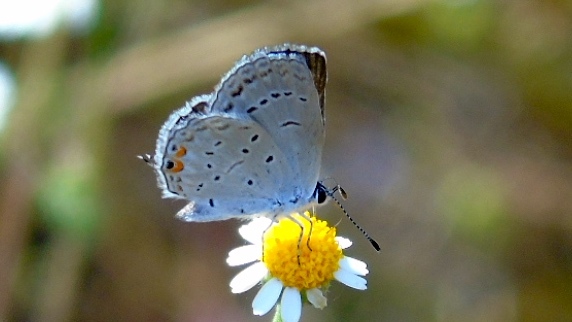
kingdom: Animalia
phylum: Arthropoda
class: Insecta
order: Lepidoptera
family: Lycaenidae
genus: Elkalyce
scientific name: Elkalyce comyntas
